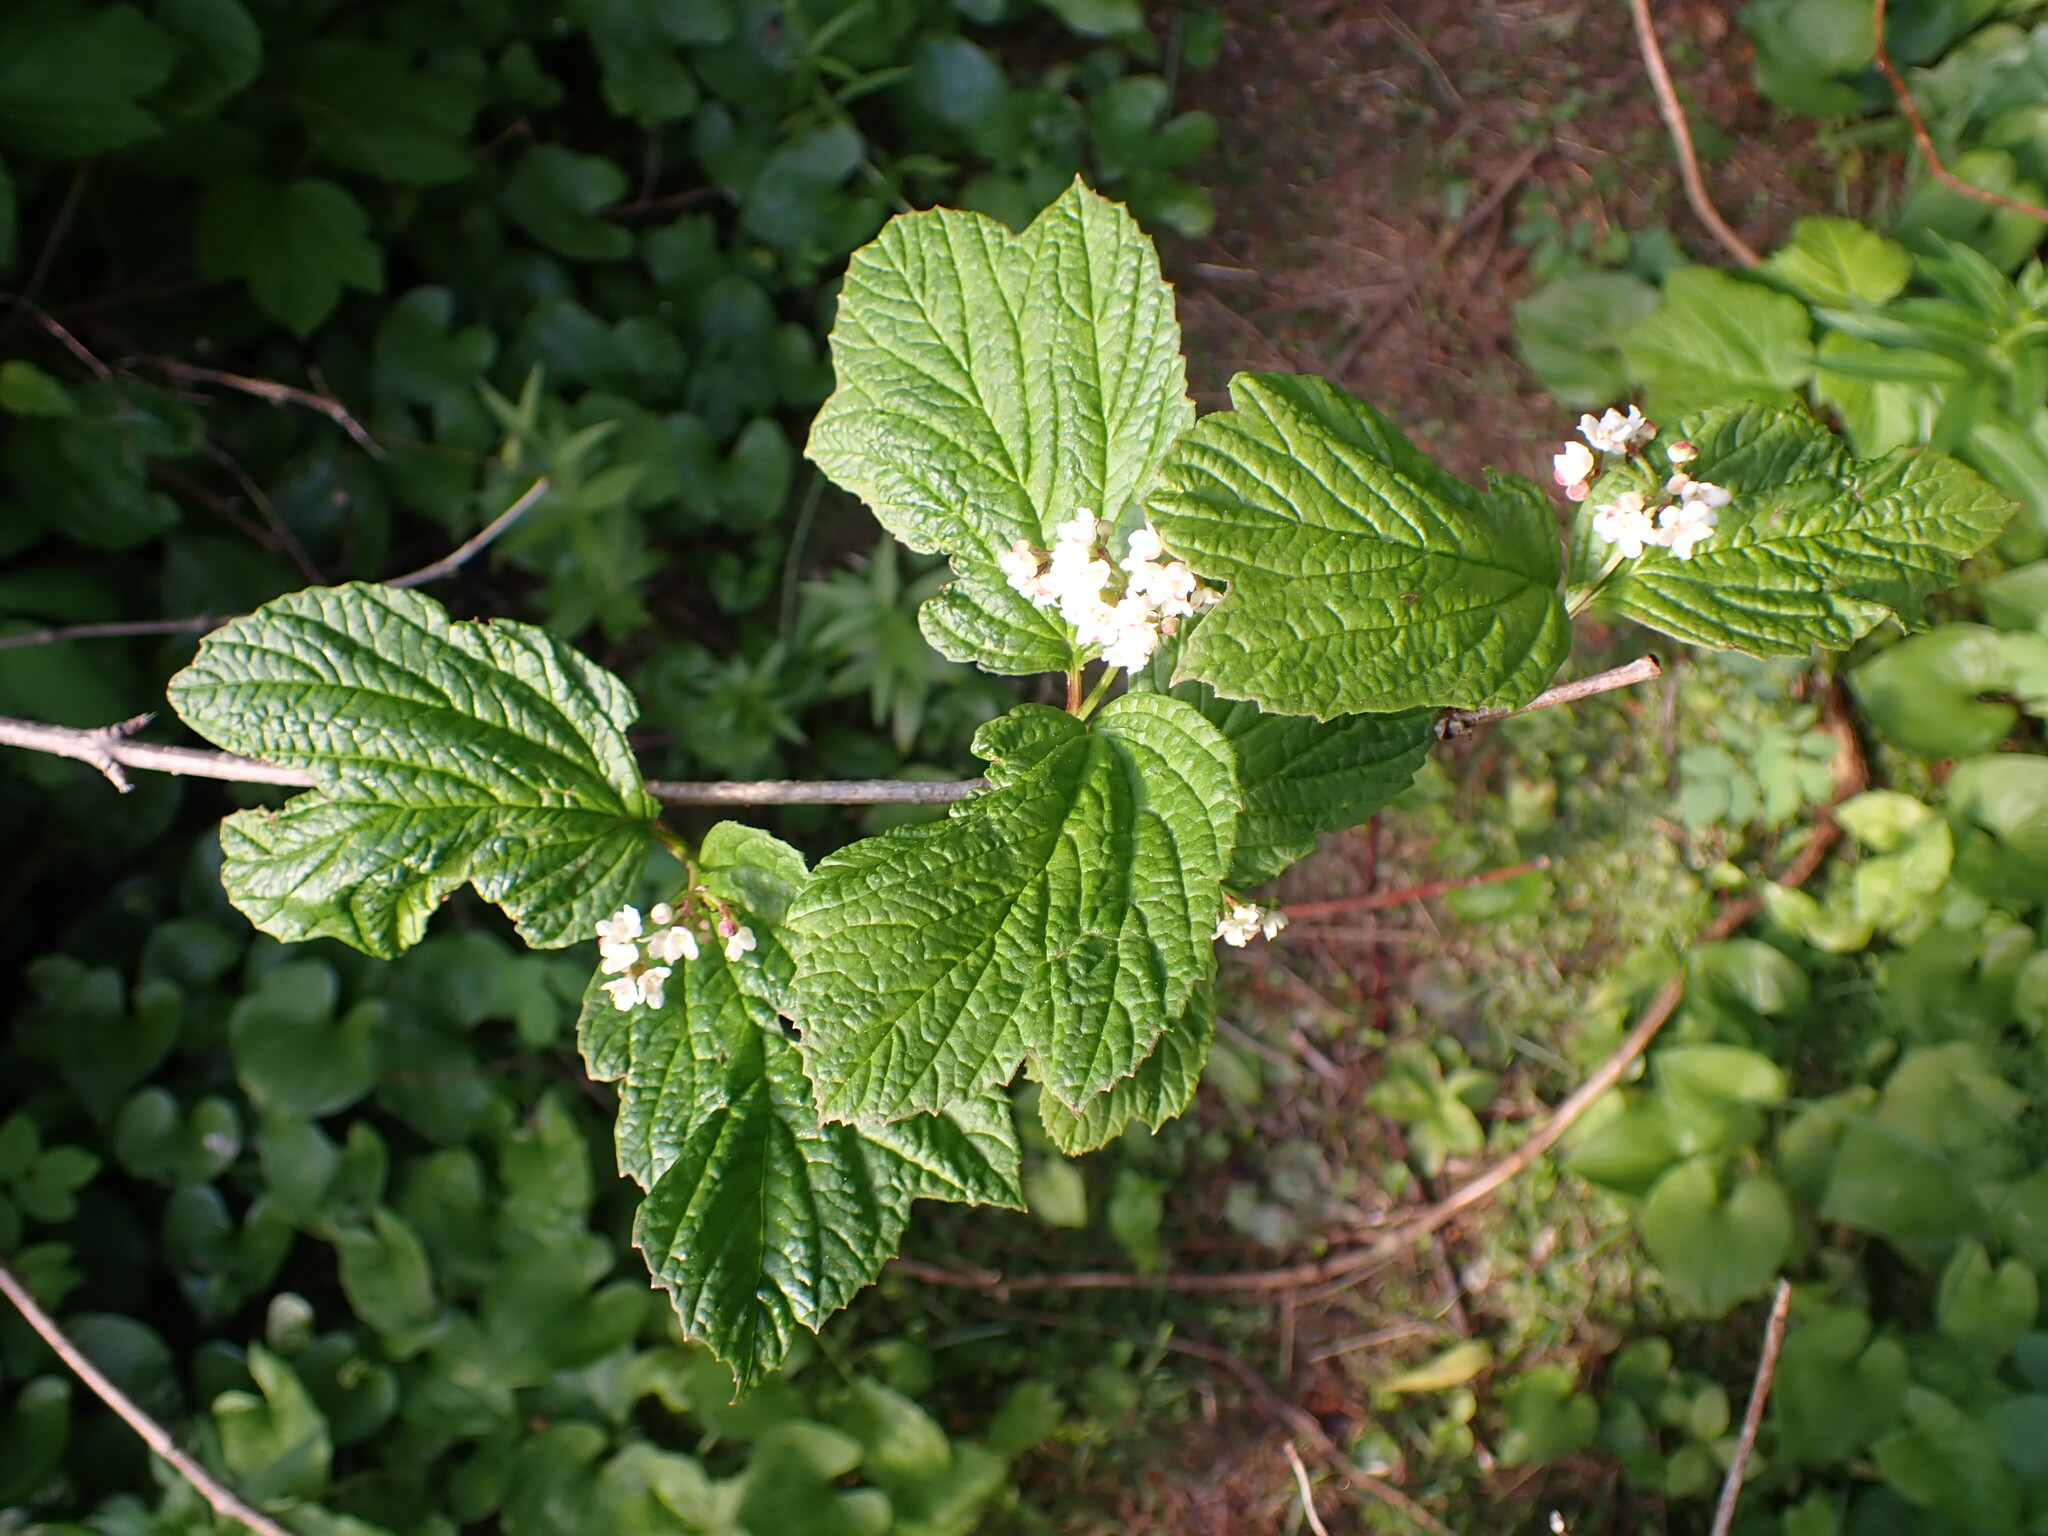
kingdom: Plantae
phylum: Tracheophyta
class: Magnoliopsida
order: Dipsacales
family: Viburnaceae
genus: Viburnum
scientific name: Viburnum edule
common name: Mooseberry
